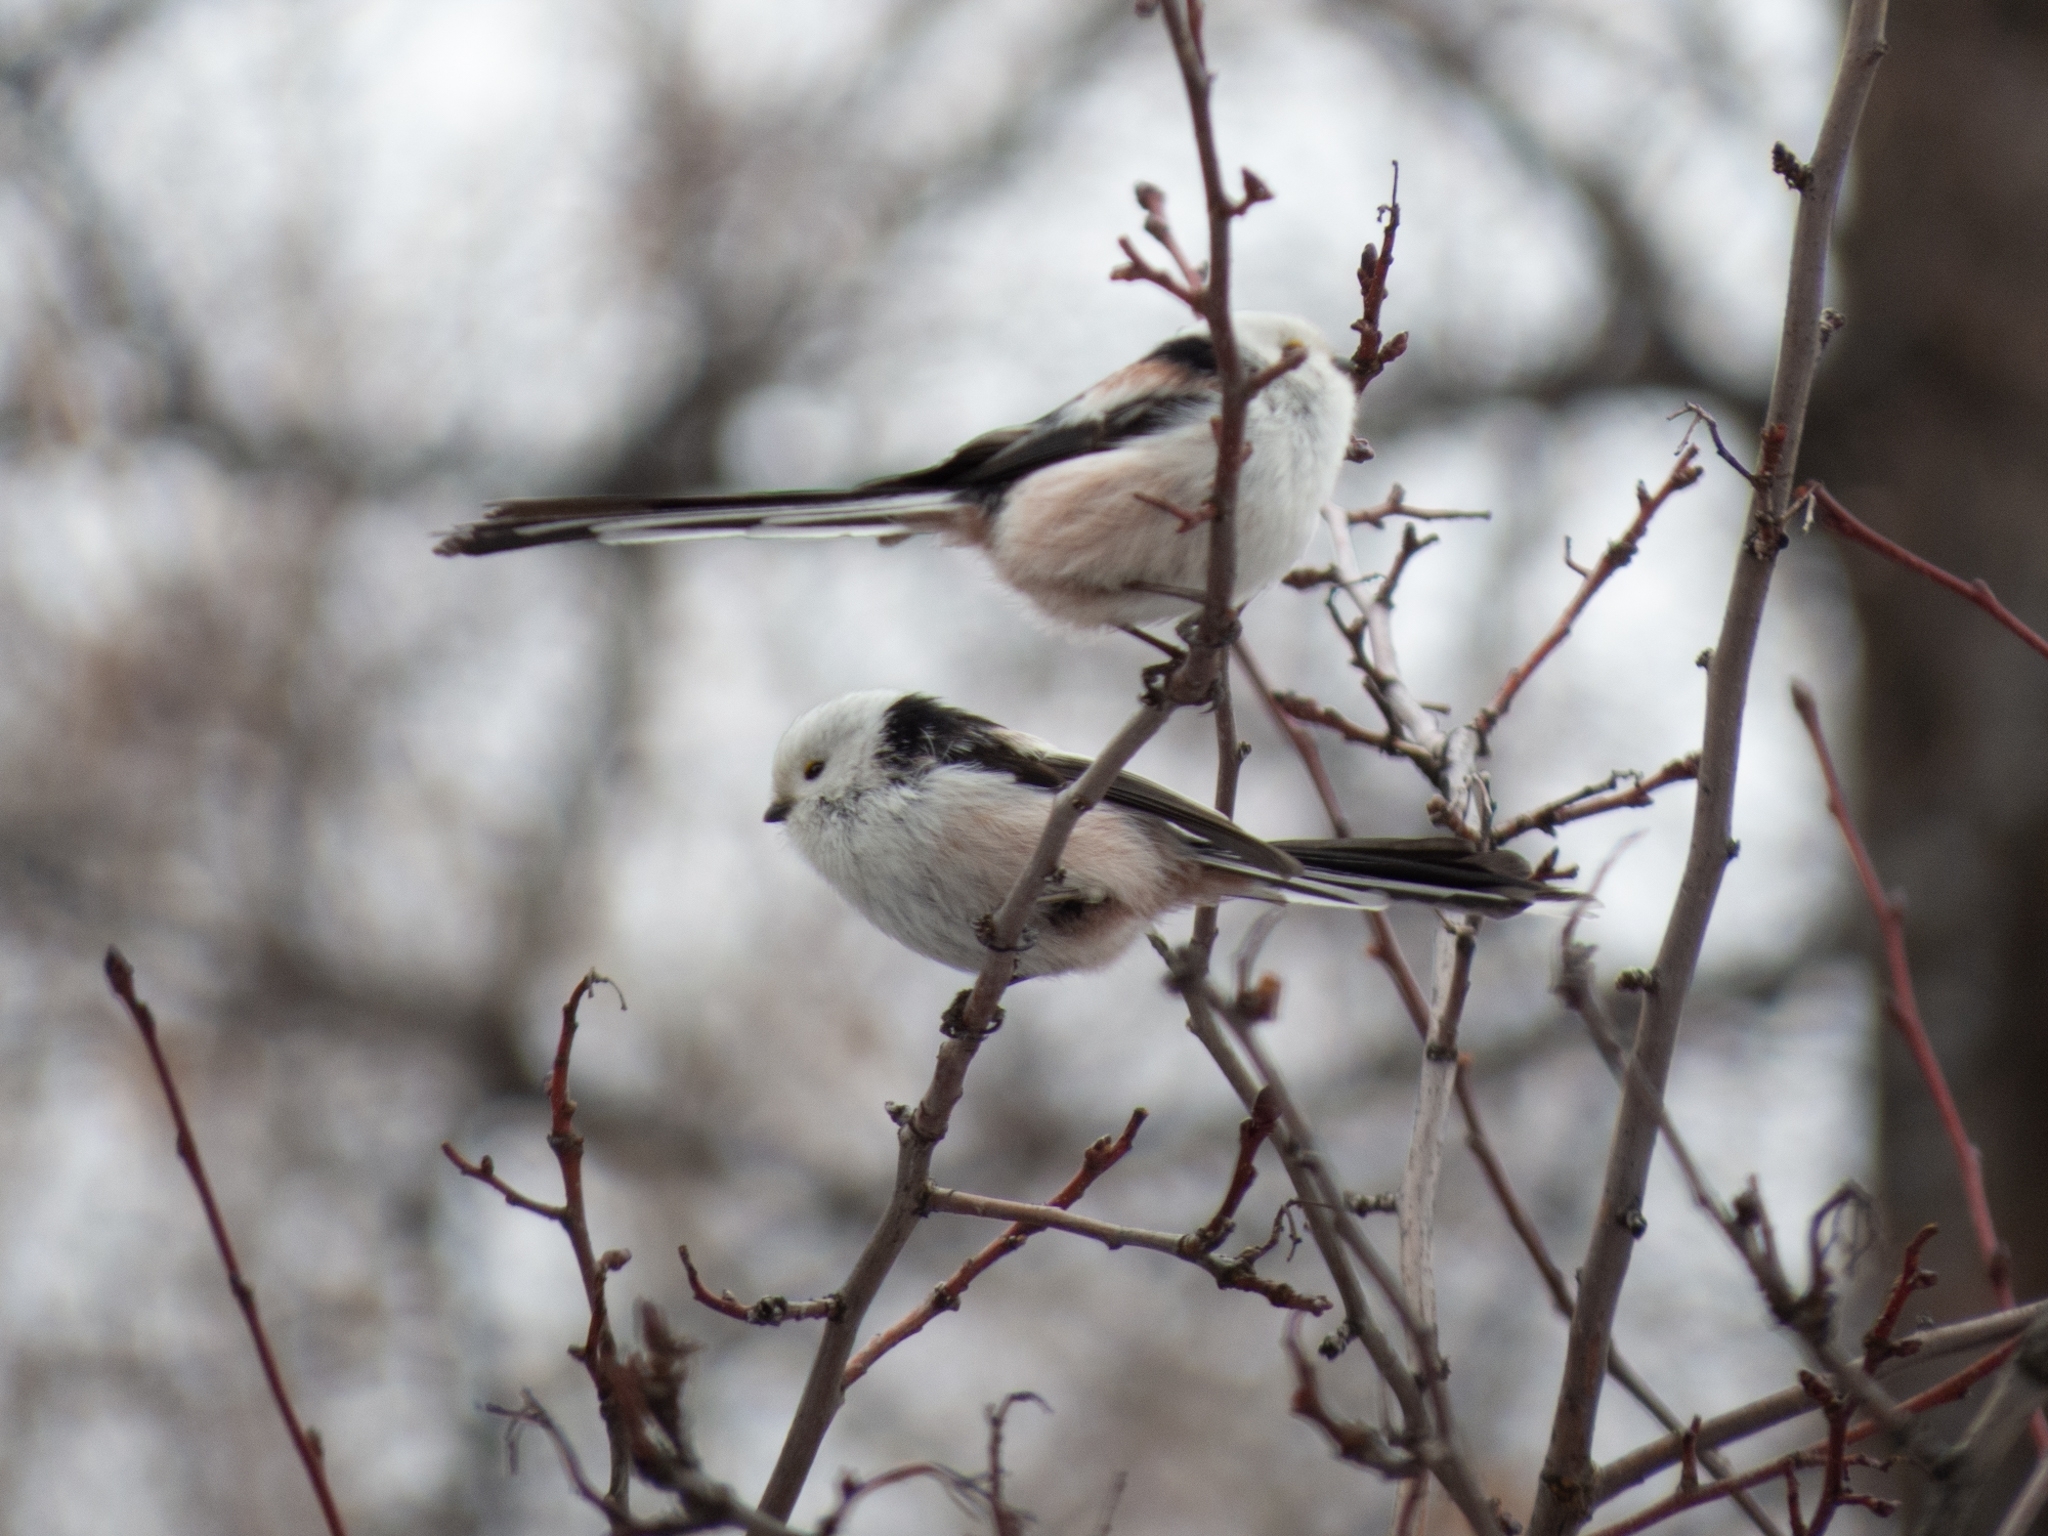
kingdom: Animalia
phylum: Chordata
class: Aves
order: Passeriformes
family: Aegithalidae
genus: Aegithalos
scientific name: Aegithalos caudatus
